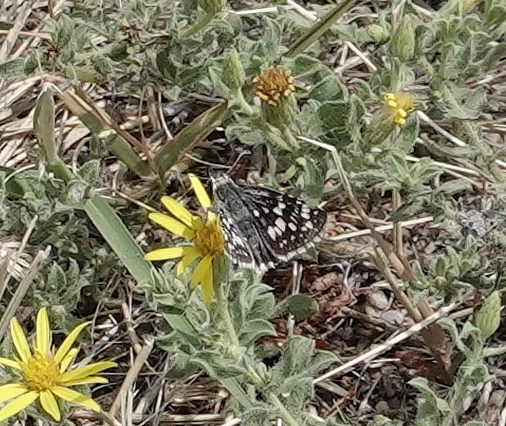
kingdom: Animalia
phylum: Arthropoda
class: Insecta
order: Lepidoptera
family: Hesperiidae
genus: Burnsius
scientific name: Burnsius communis
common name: Common checkered-skipper
